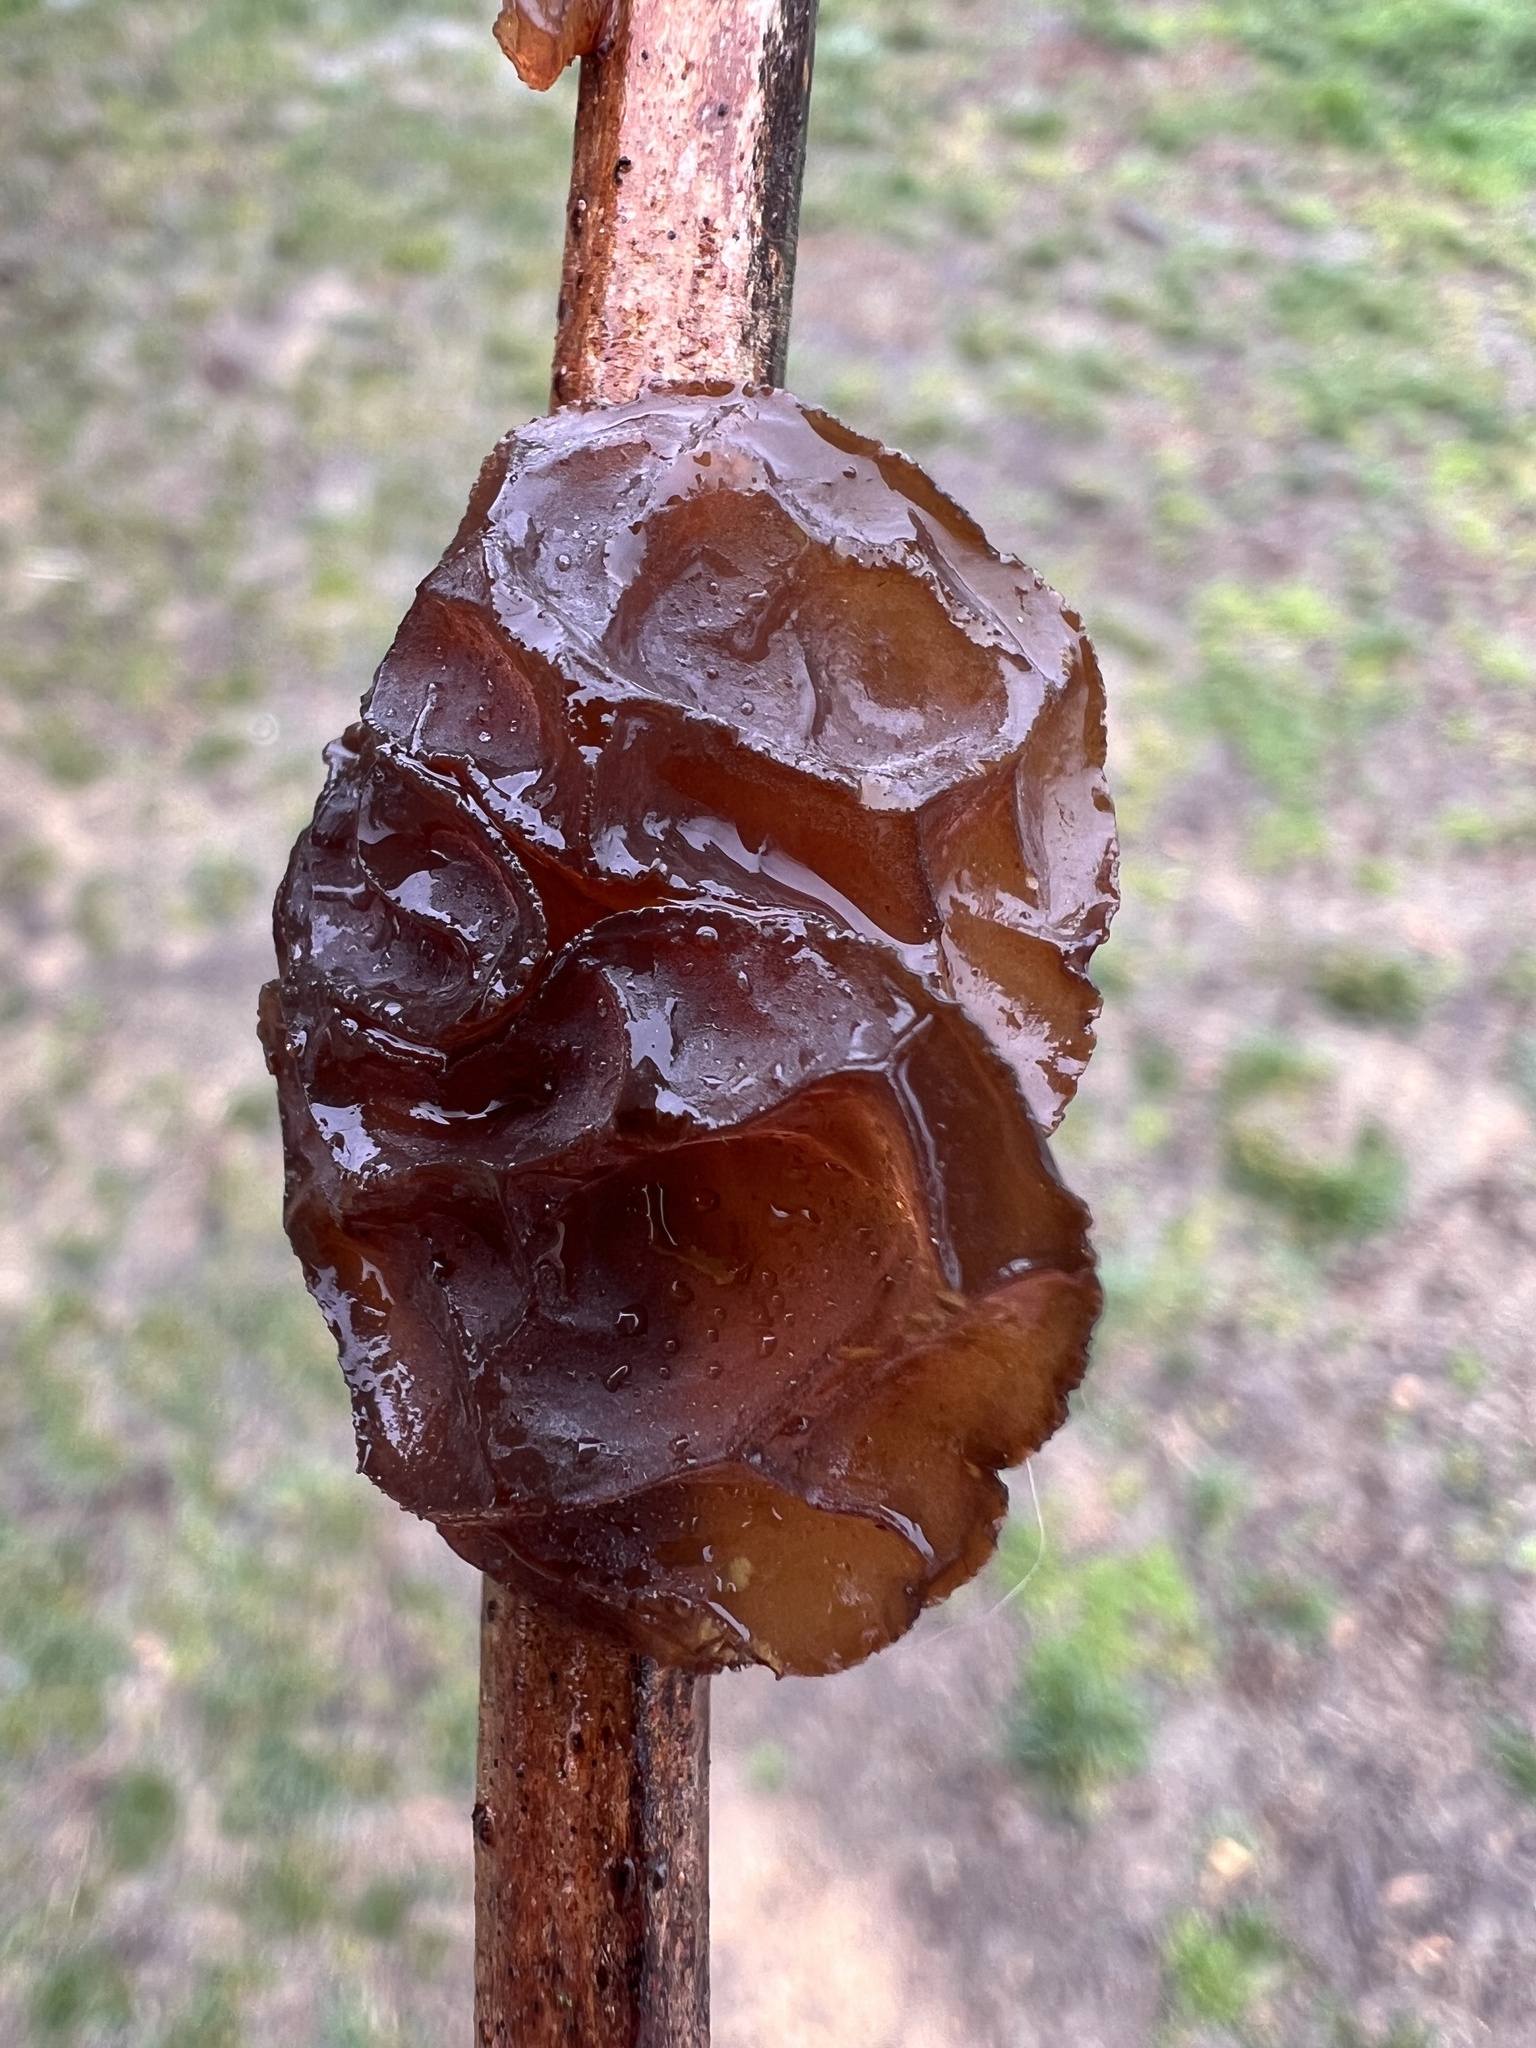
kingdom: Fungi
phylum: Basidiomycota
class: Agaricomycetes
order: Auriculariales
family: Auriculariaceae
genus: Exidia
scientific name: Exidia
